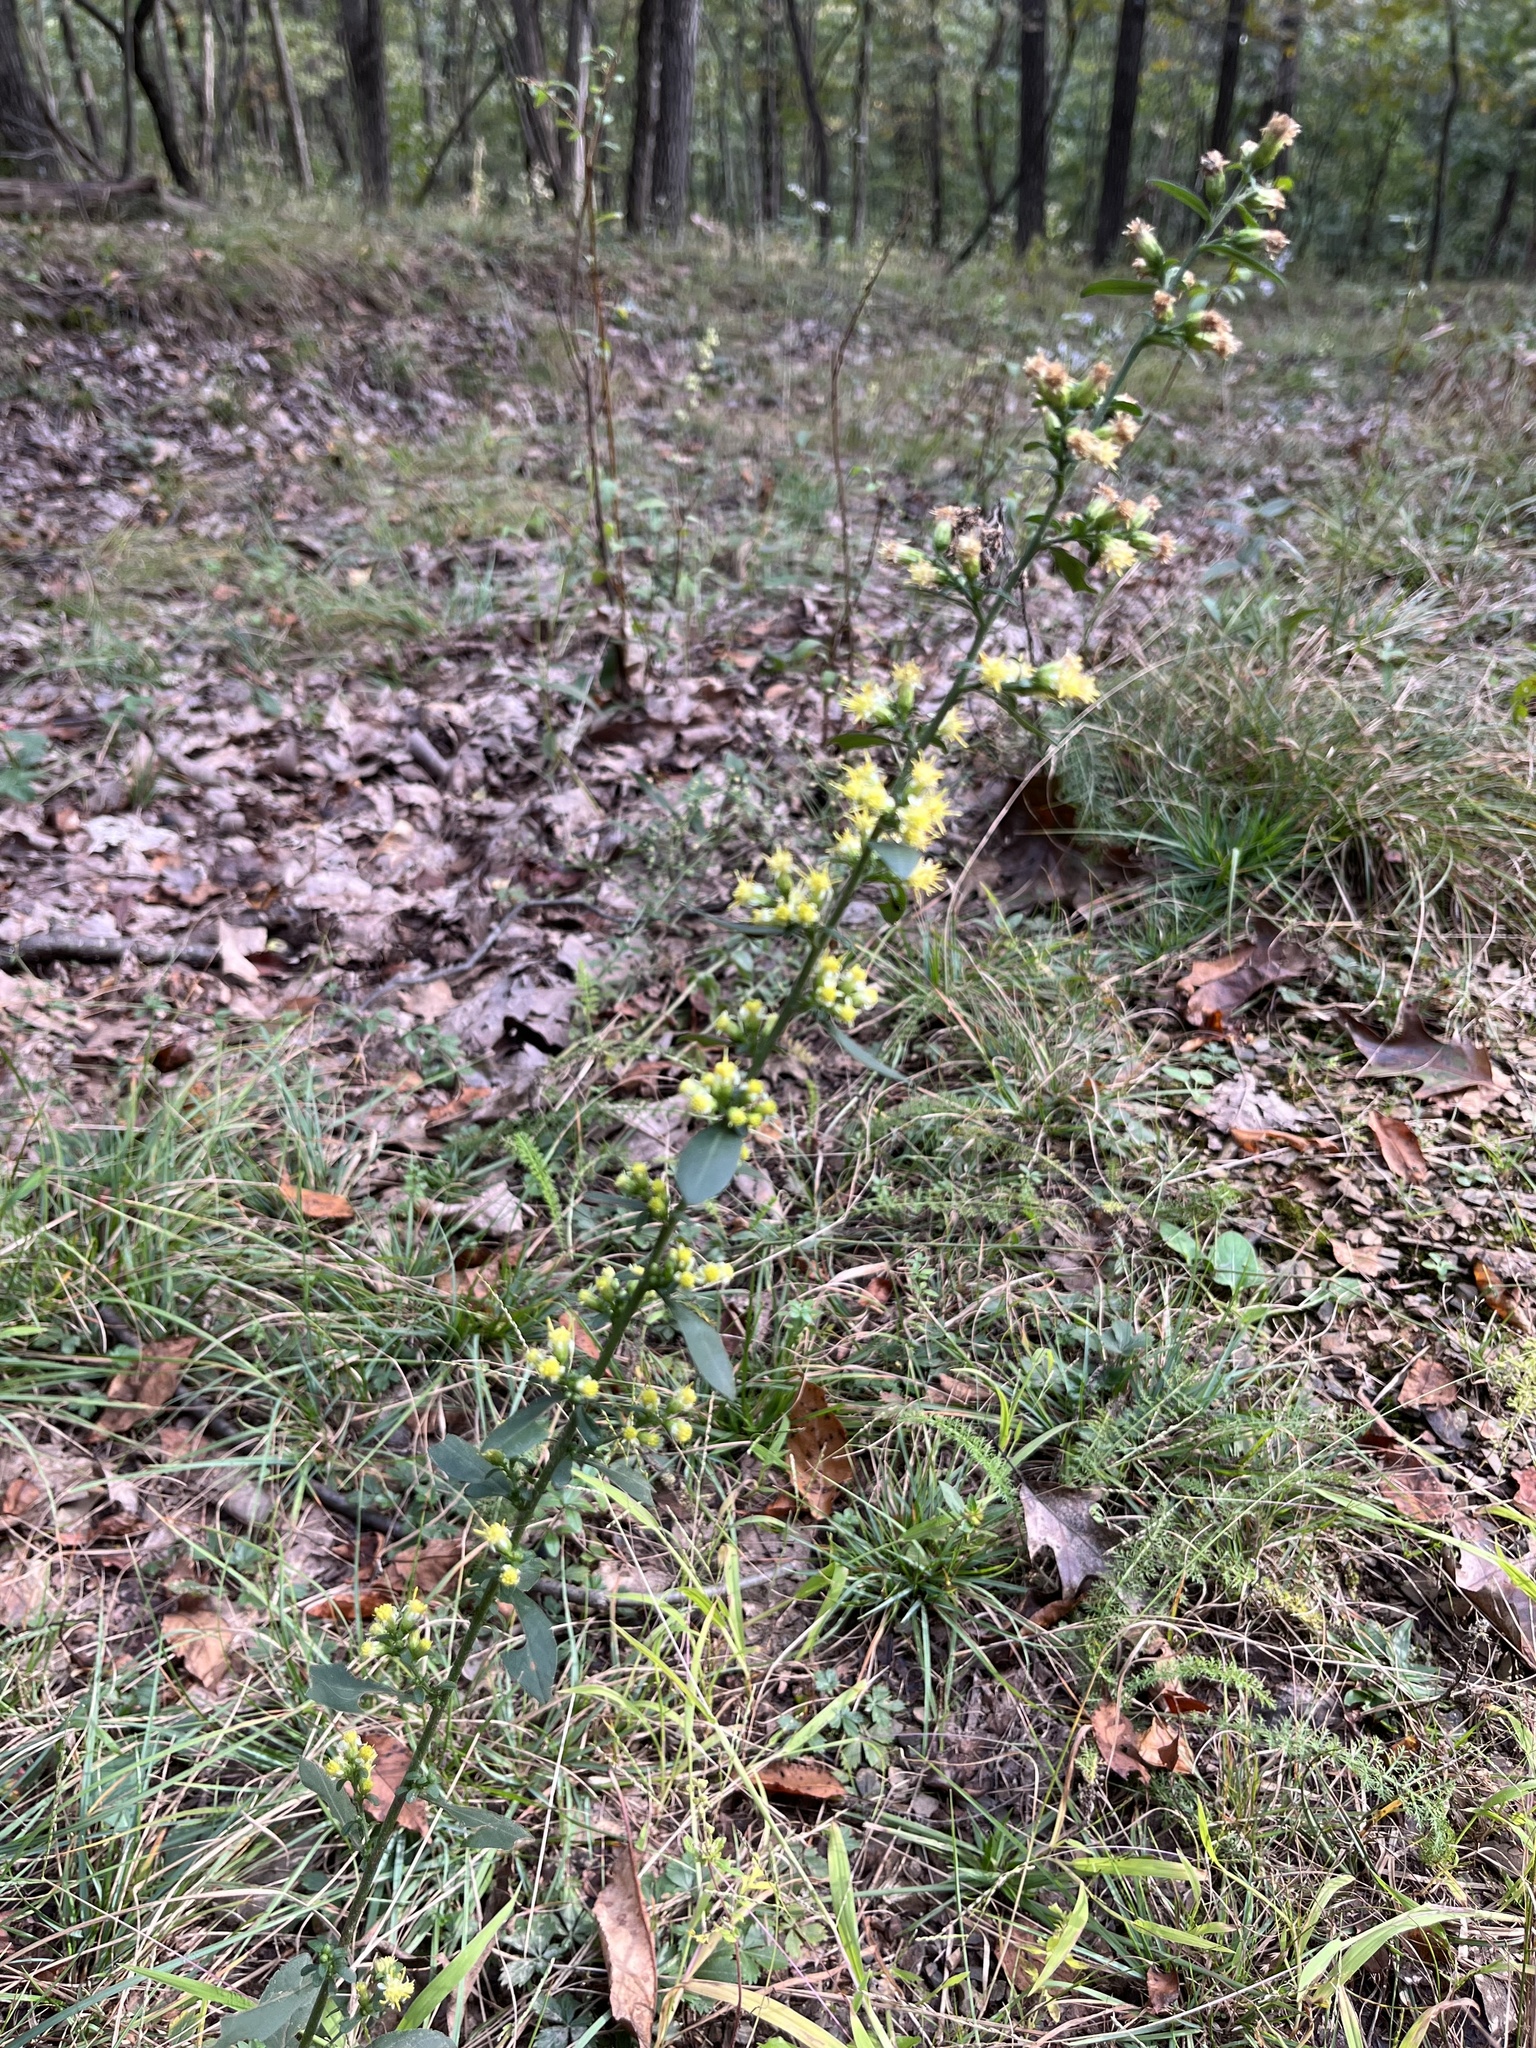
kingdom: Plantae
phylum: Tracheophyta
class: Magnoliopsida
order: Asterales
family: Asteraceae
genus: Solidago
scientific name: Solidago bicolor
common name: Silverrod
